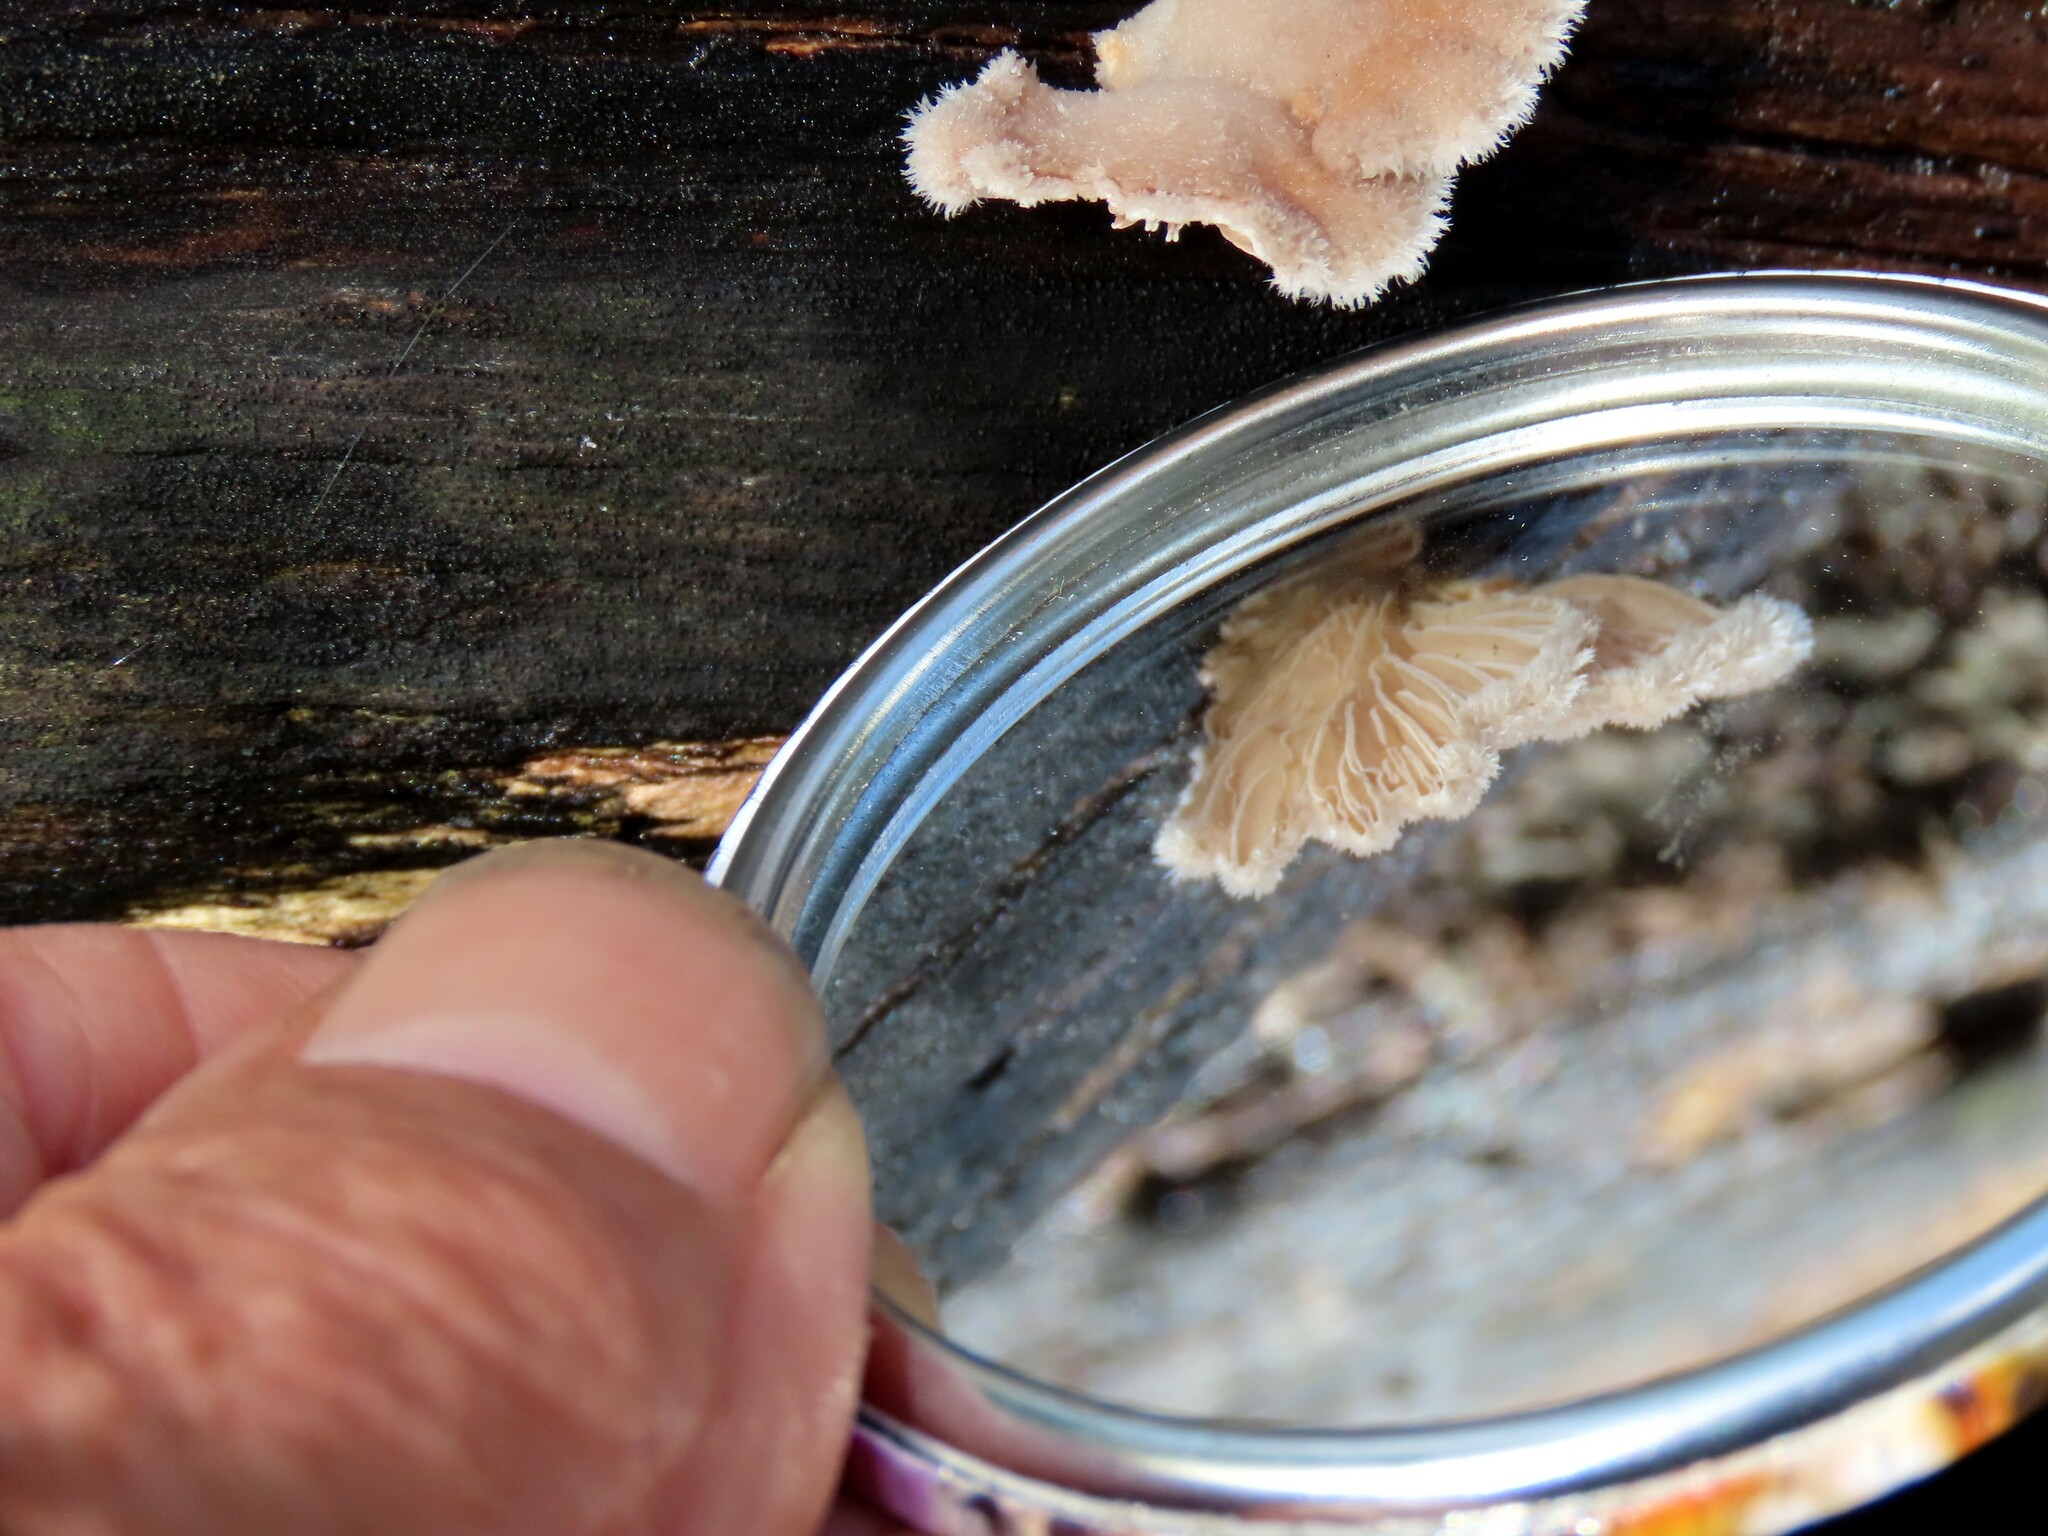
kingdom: Fungi
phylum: Basidiomycota
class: Agaricomycetes
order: Agaricales
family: Schizophyllaceae
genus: Schizophyllum
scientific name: Schizophyllum commune
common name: Common porecrust
